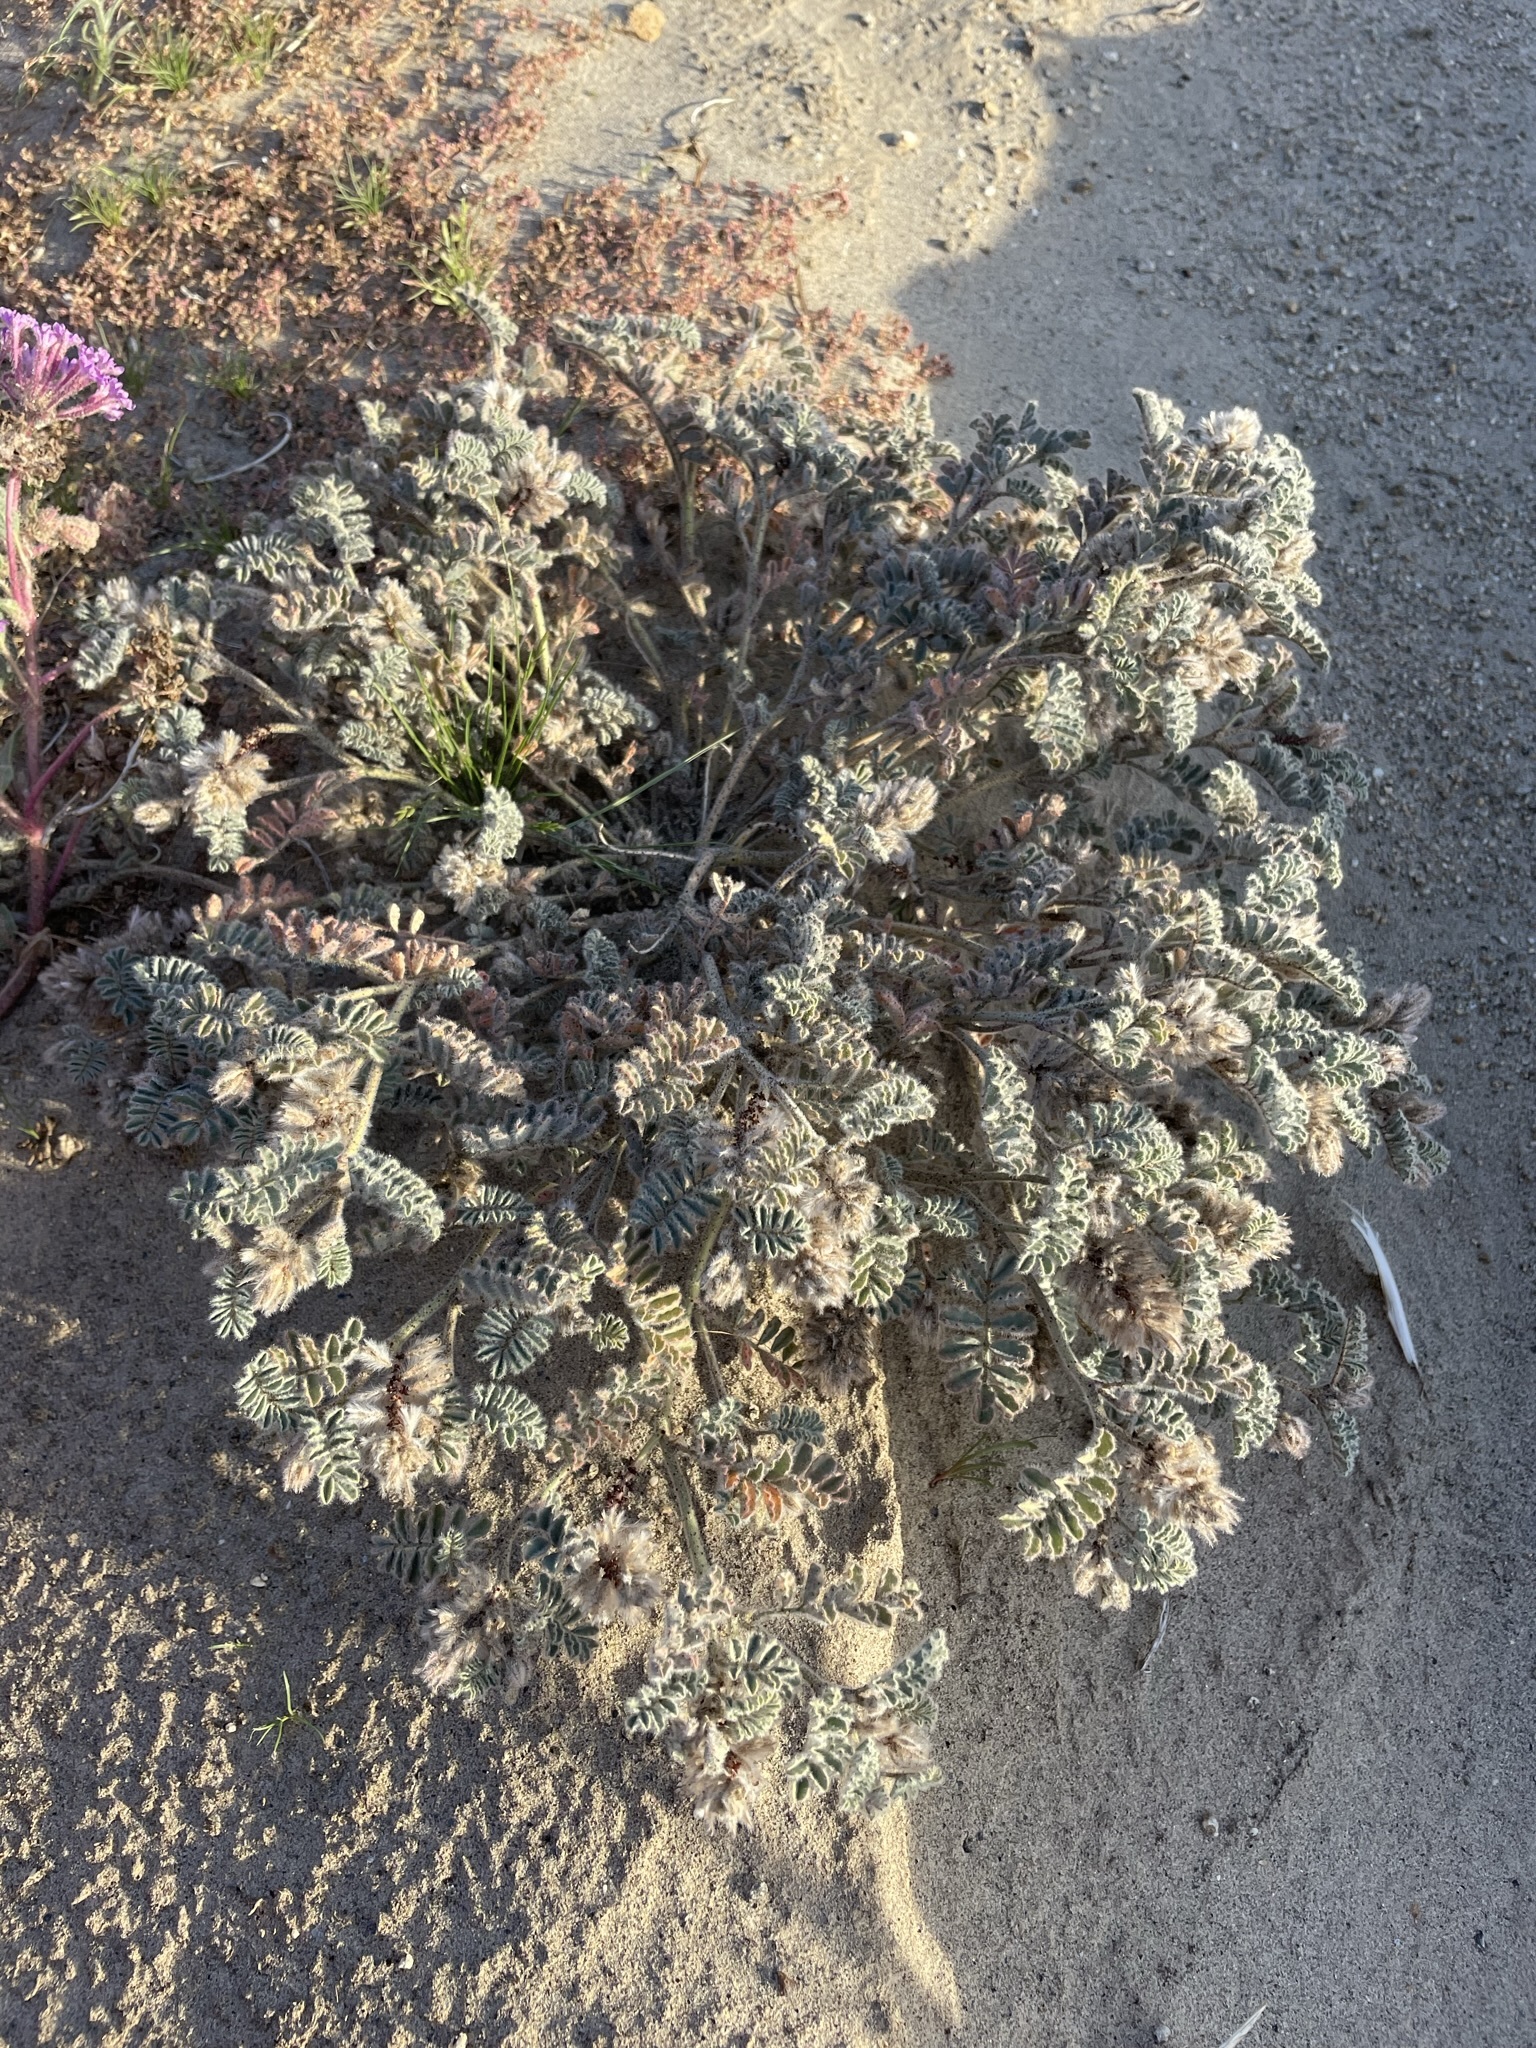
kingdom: Plantae
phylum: Tracheophyta
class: Magnoliopsida
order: Fabales
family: Fabaceae
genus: Dalea
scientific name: Dalea mollissima
